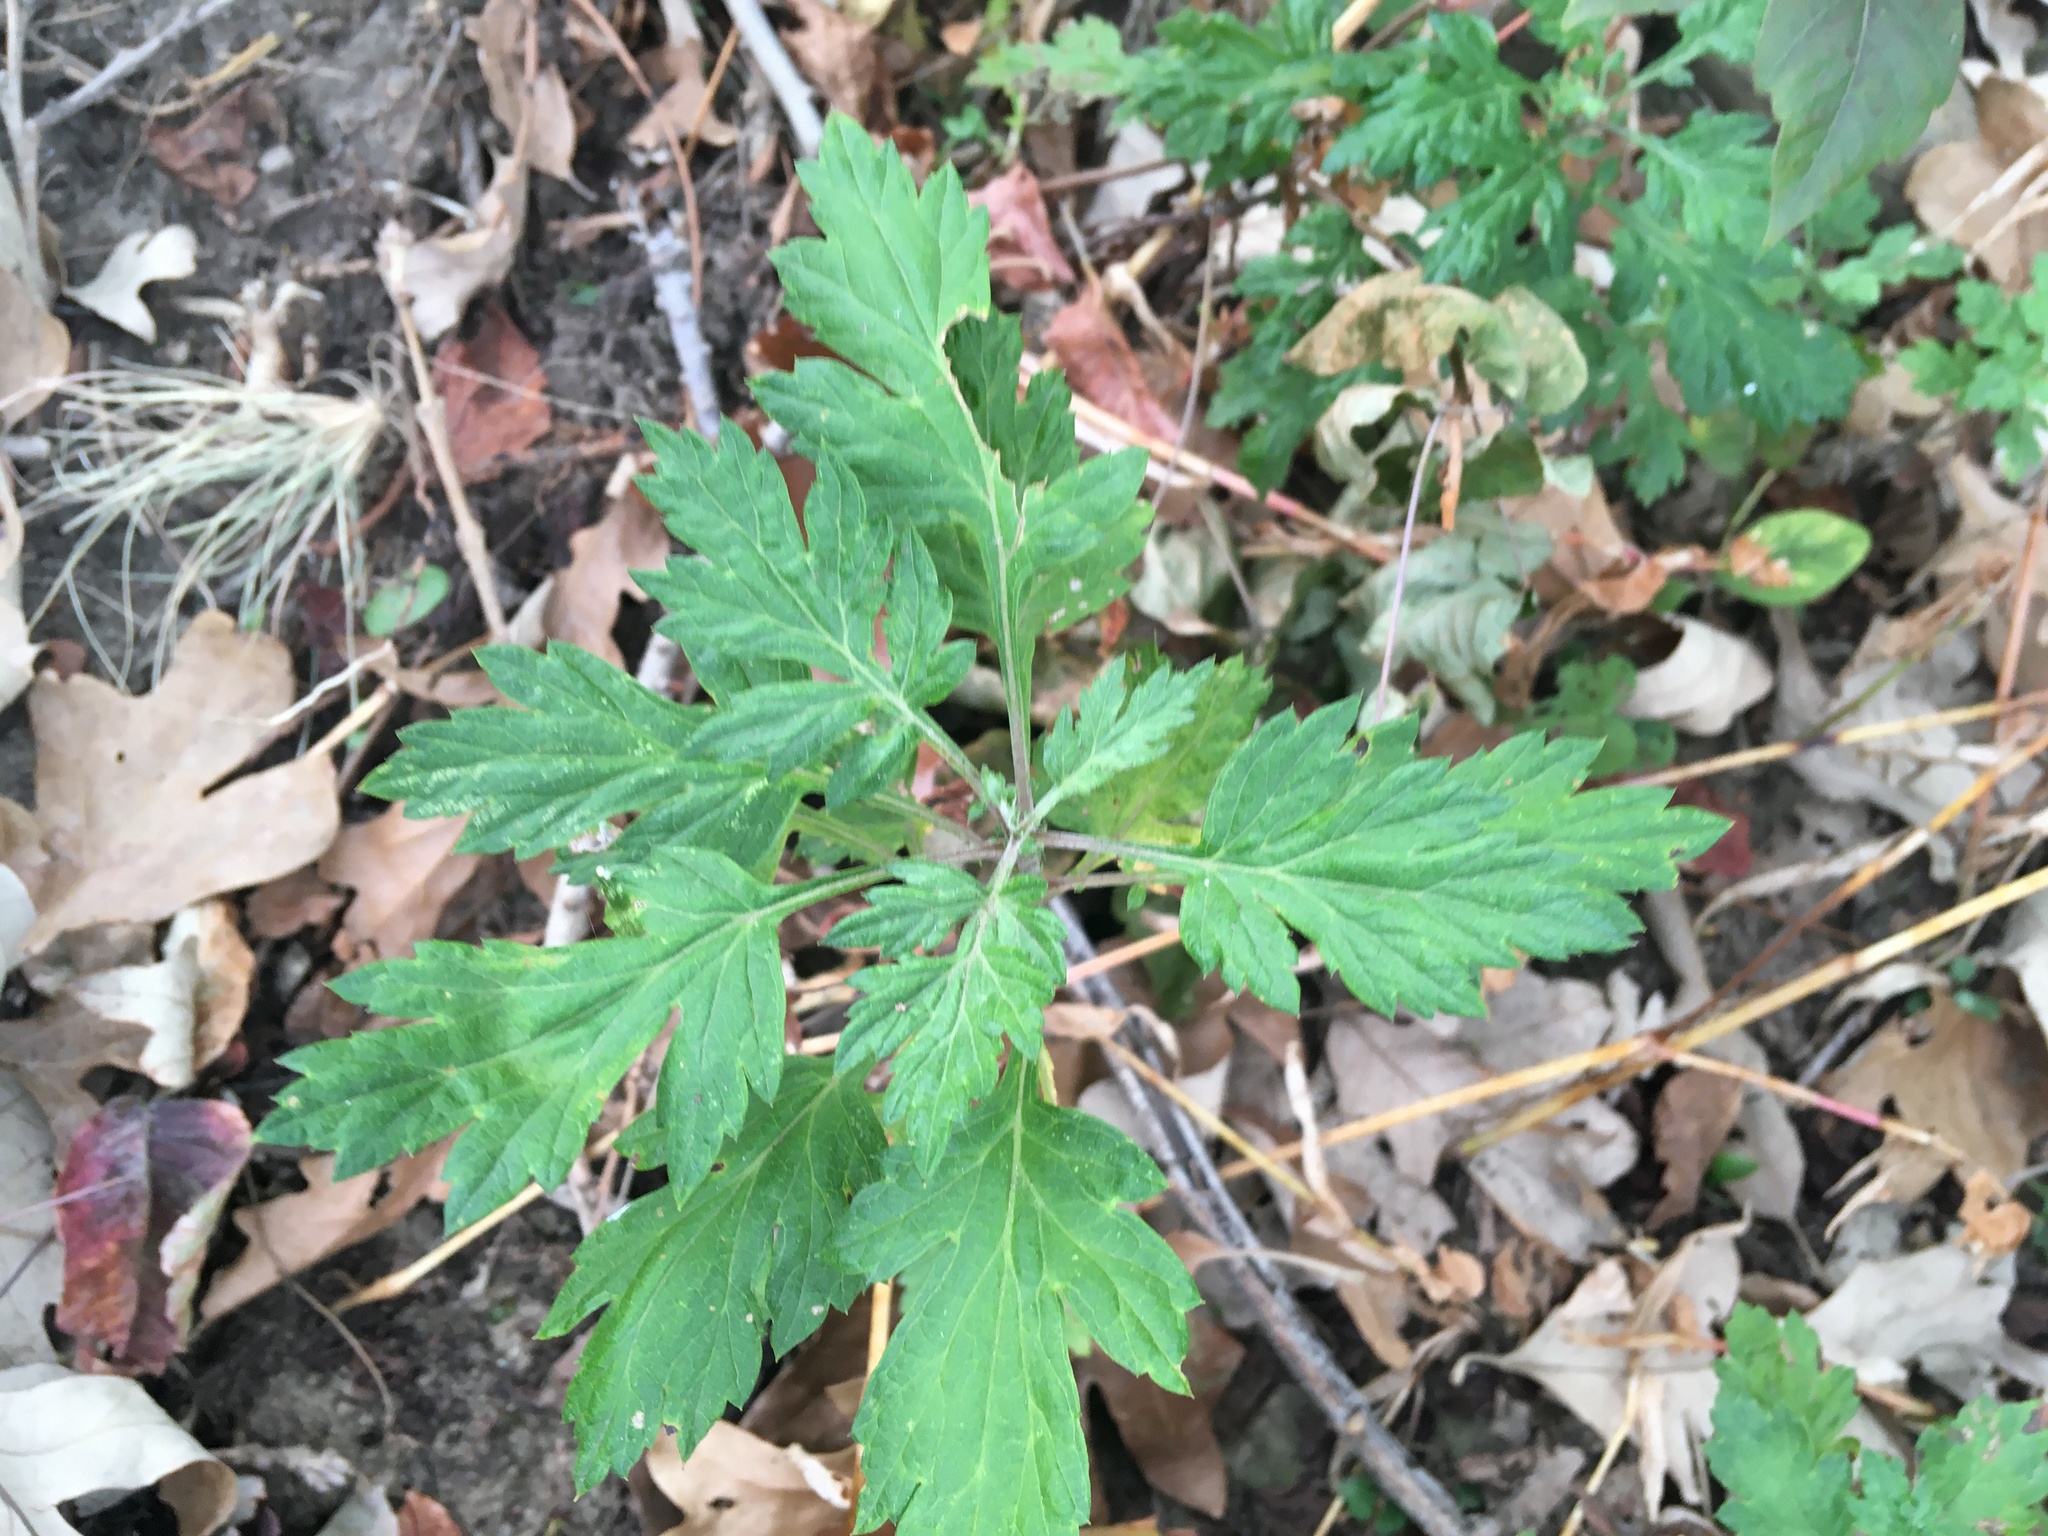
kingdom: Plantae
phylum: Tracheophyta
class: Magnoliopsida
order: Asterales
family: Asteraceae
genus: Artemisia
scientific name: Artemisia vulgaris
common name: Mugwort
